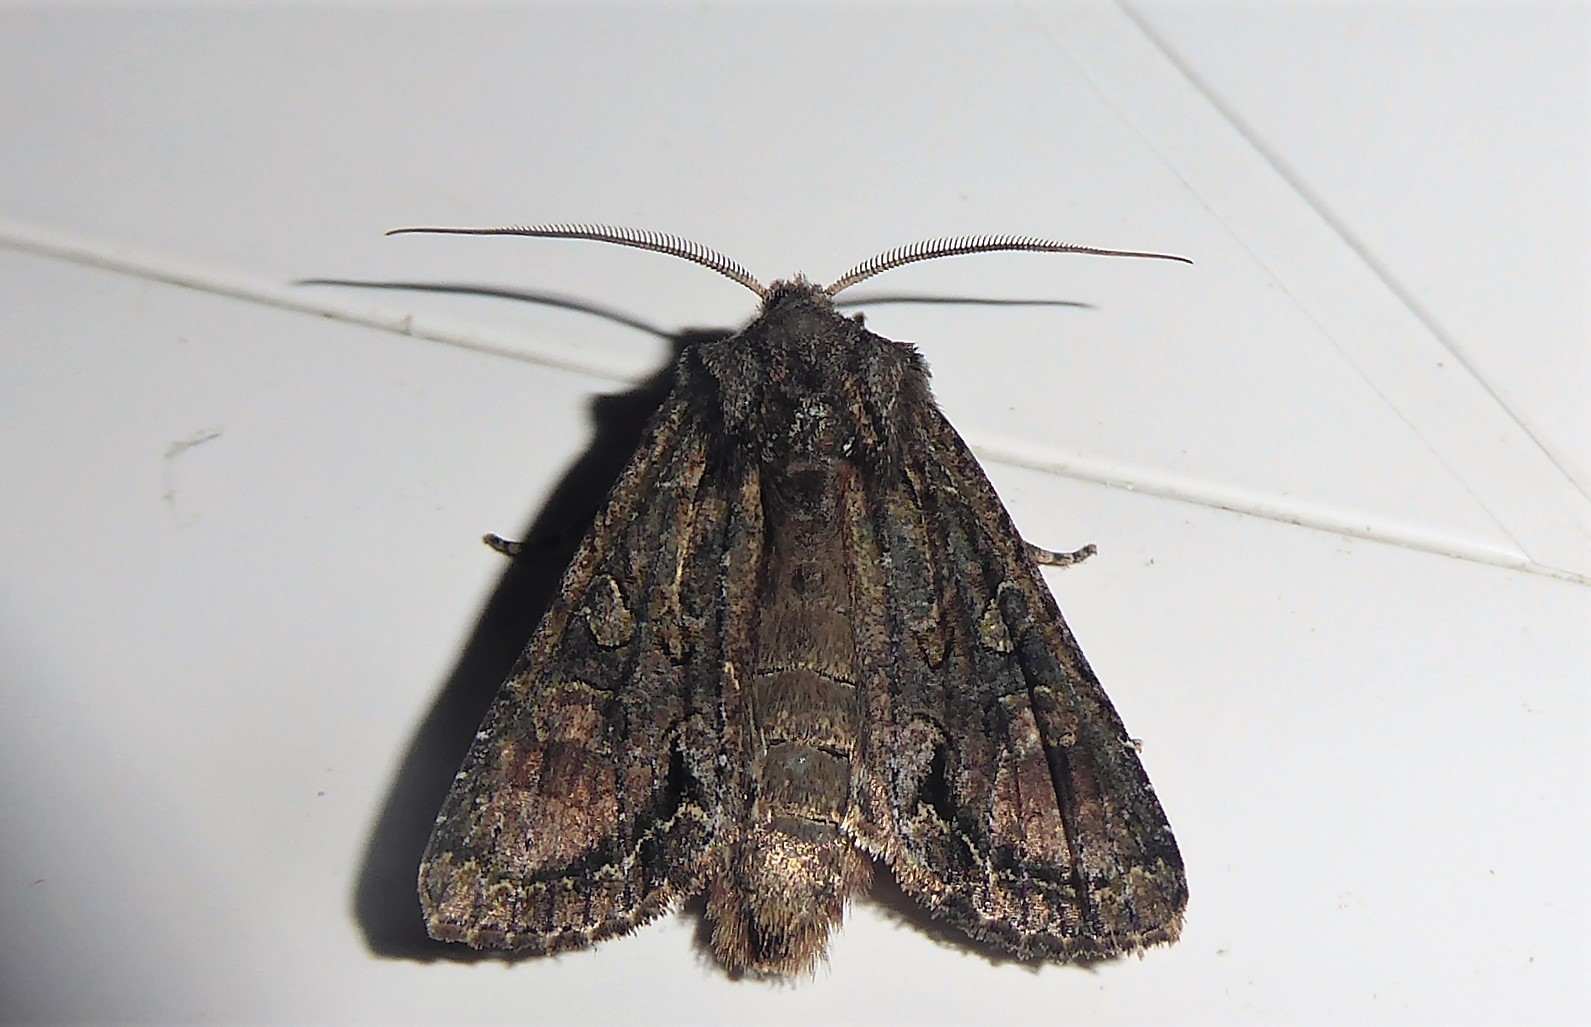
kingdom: Animalia
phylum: Arthropoda
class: Insecta
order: Lepidoptera
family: Noctuidae
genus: Ichneutica
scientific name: Ichneutica mutans
